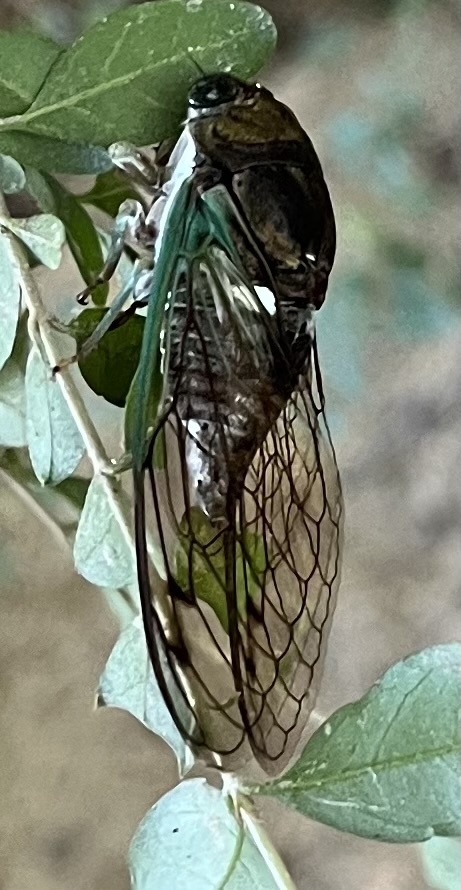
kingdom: Animalia
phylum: Arthropoda
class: Insecta
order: Hemiptera
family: Cicadidae
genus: Neotibicen
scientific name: Neotibicen tibicen
